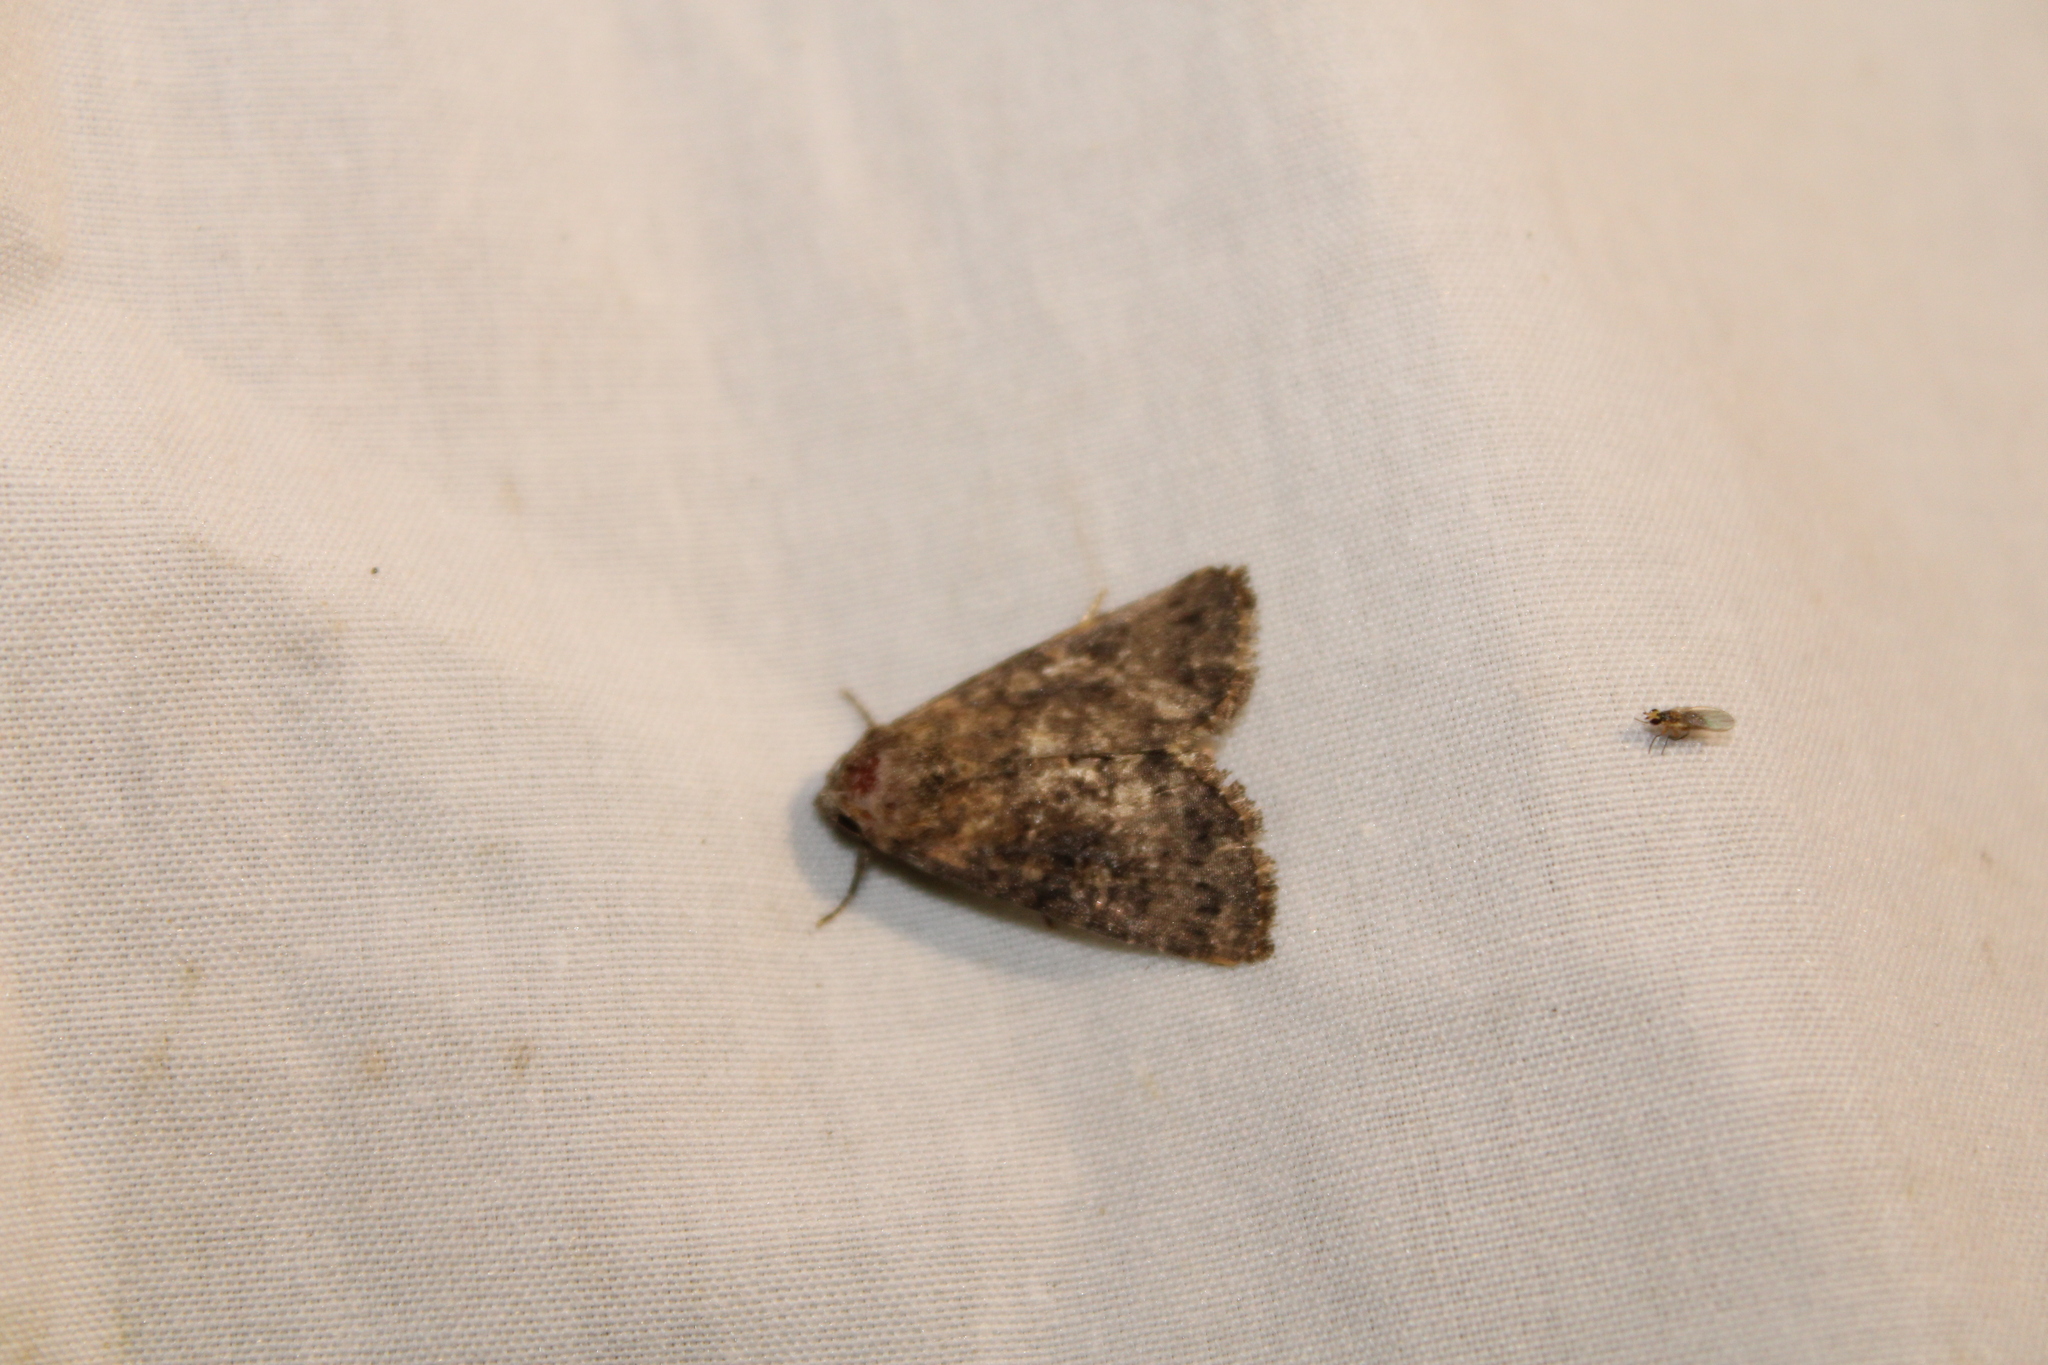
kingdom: Animalia
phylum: Arthropoda
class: Insecta
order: Lepidoptera
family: Noctuidae
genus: Condica
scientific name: Condica vecors
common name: Dusky groundling
